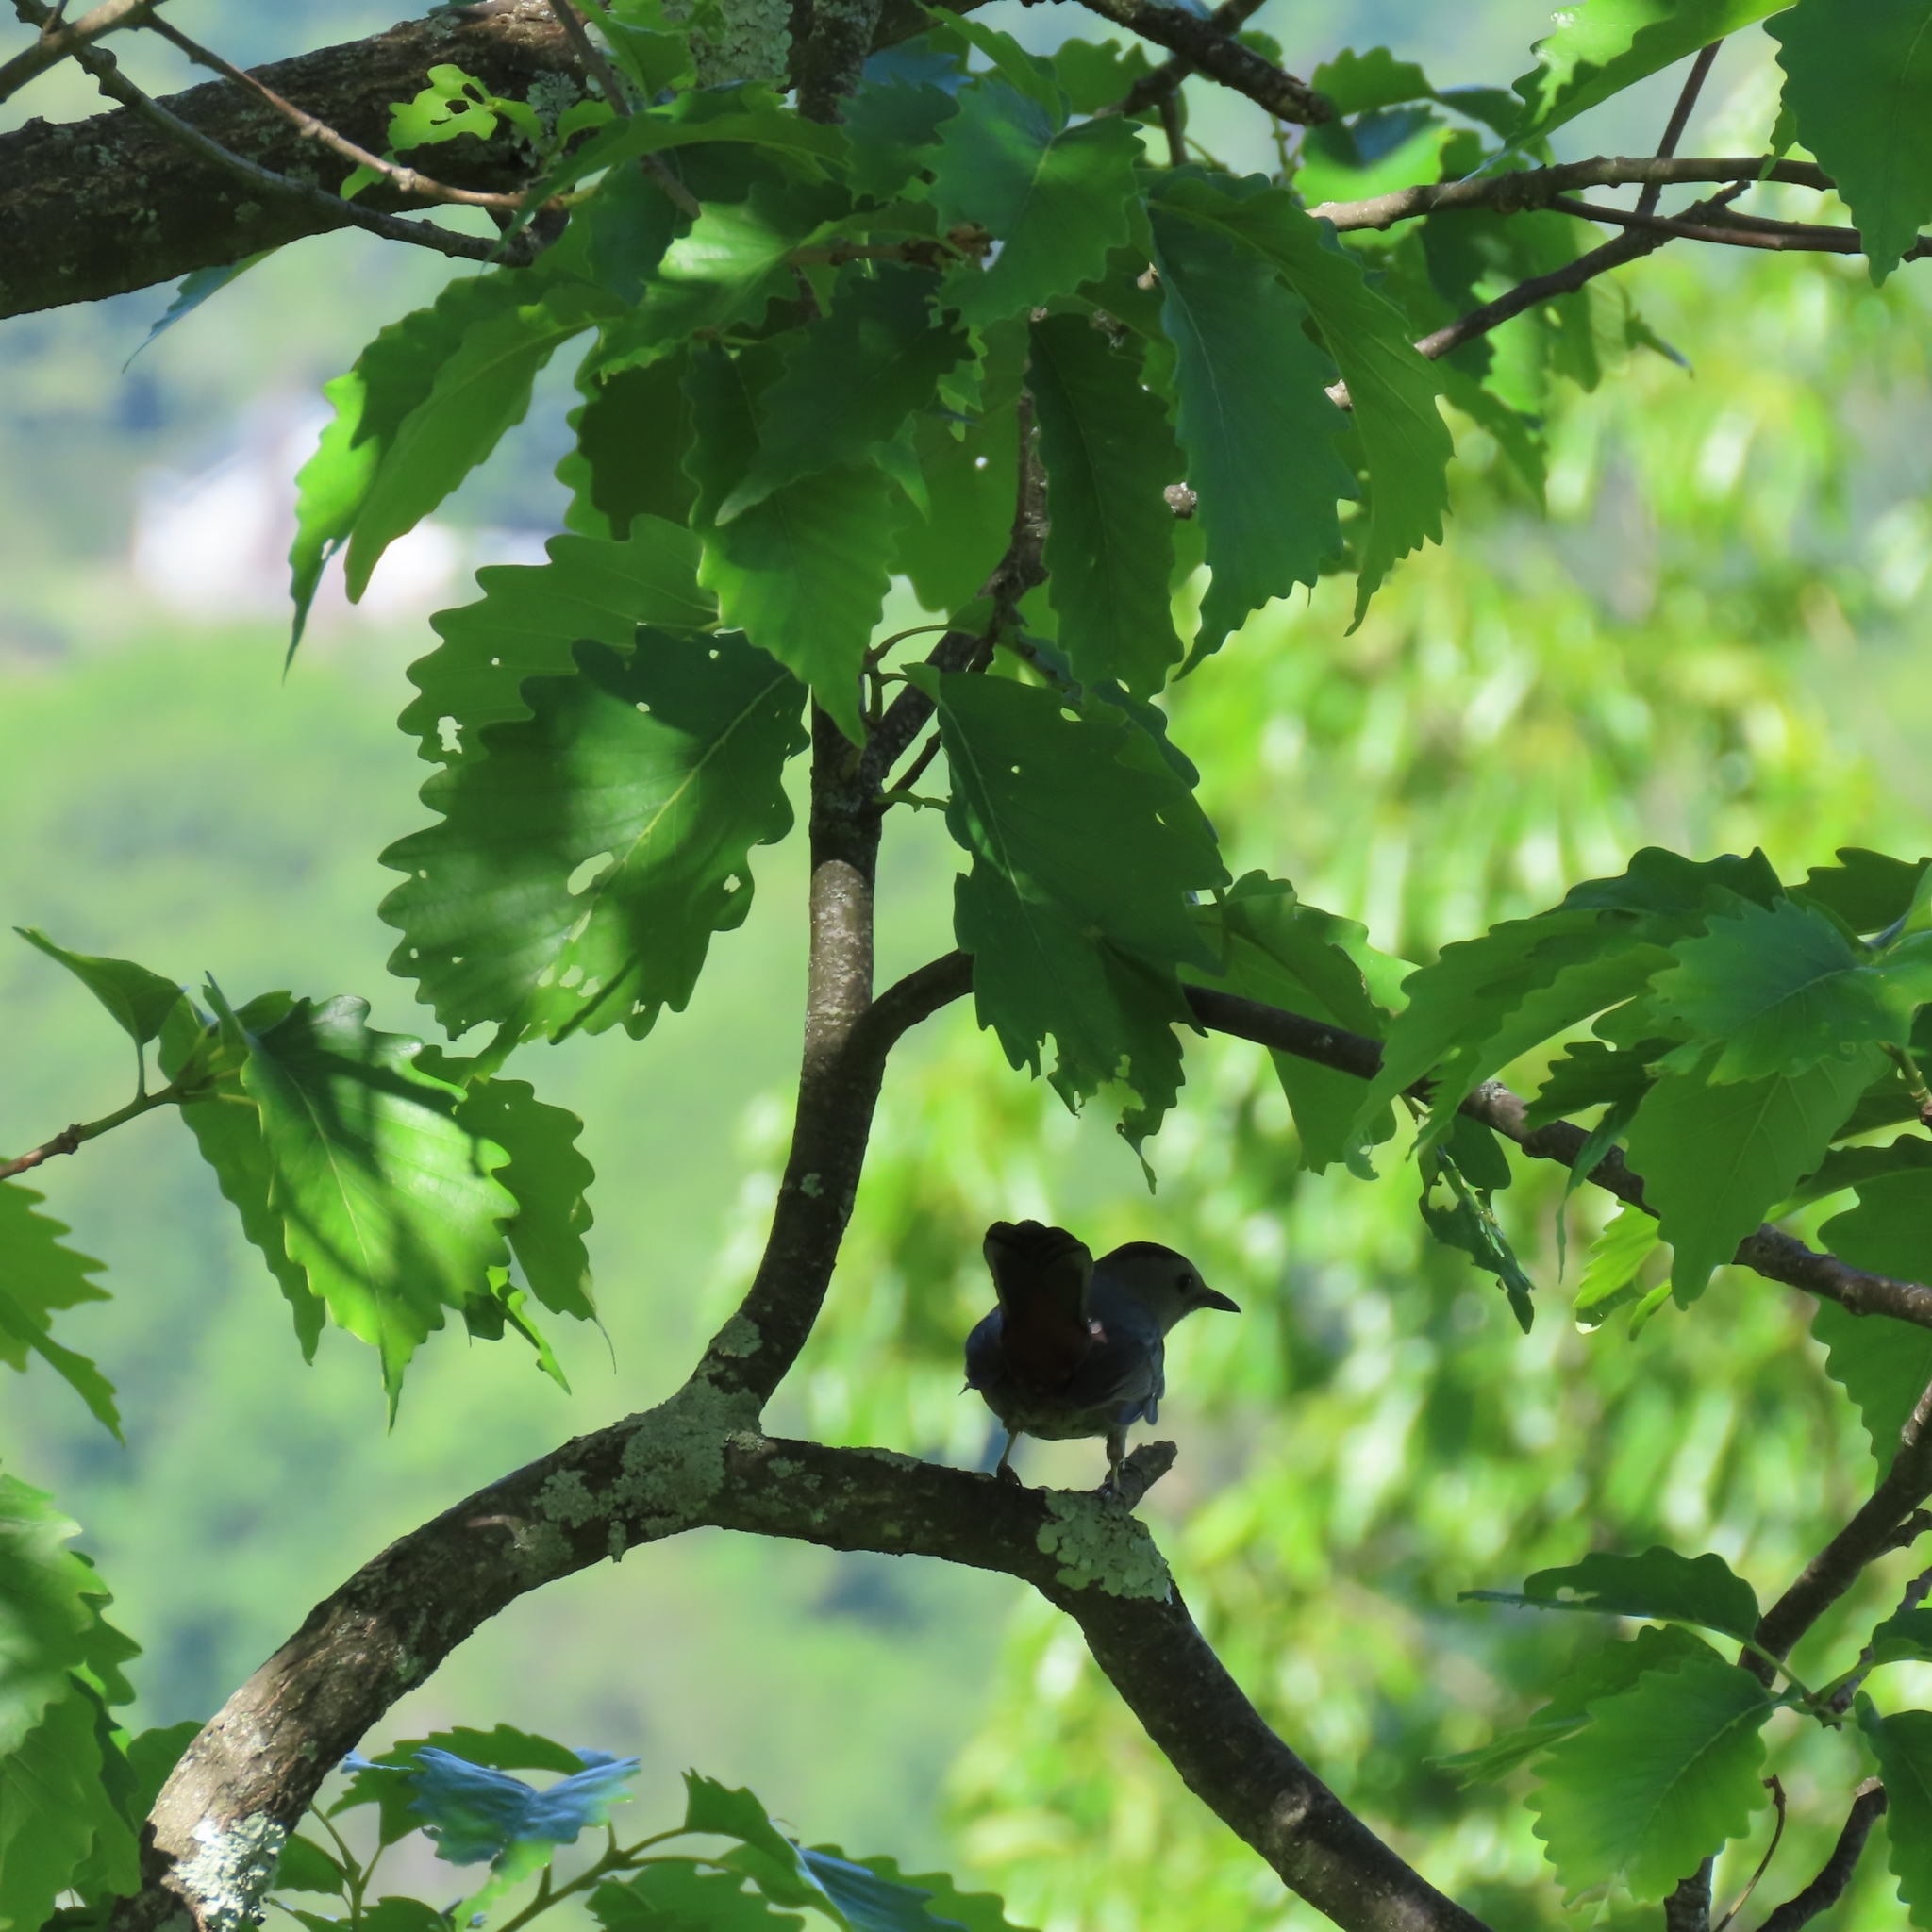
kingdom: Animalia
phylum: Chordata
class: Aves
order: Passeriformes
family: Mimidae
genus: Dumetella
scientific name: Dumetella carolinensis
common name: Gray catbird
